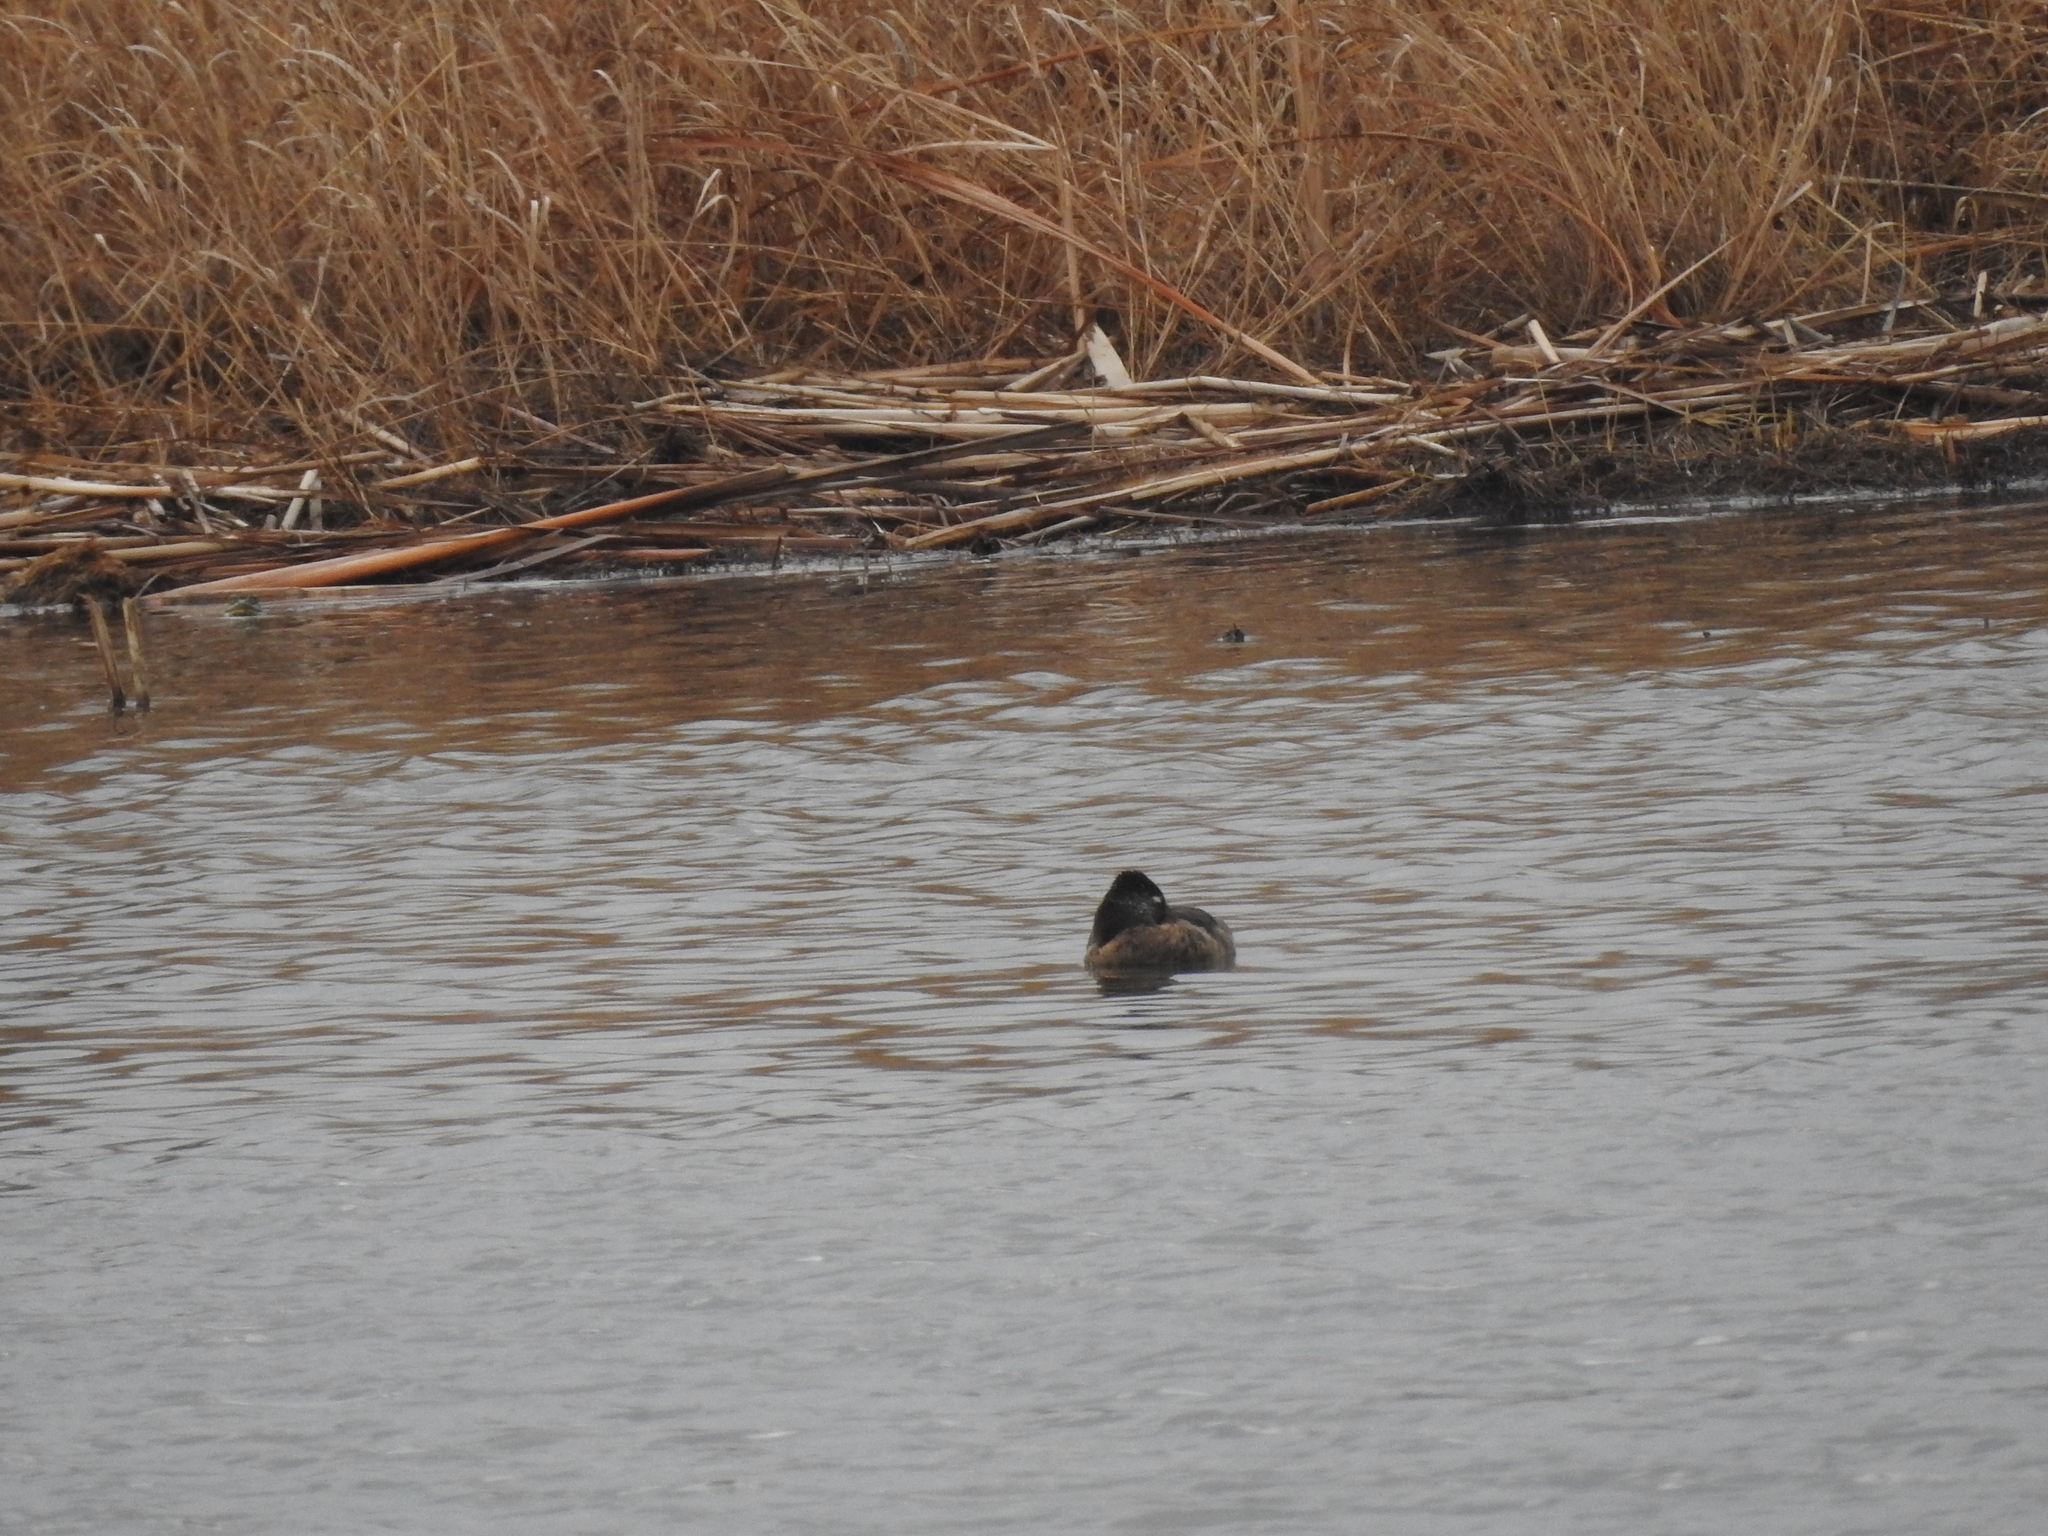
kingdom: Animalia
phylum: Chordata
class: Aves
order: Anseriformes
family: Anatidae
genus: Aythya
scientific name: Aythya collaris
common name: Ring-necked duck
